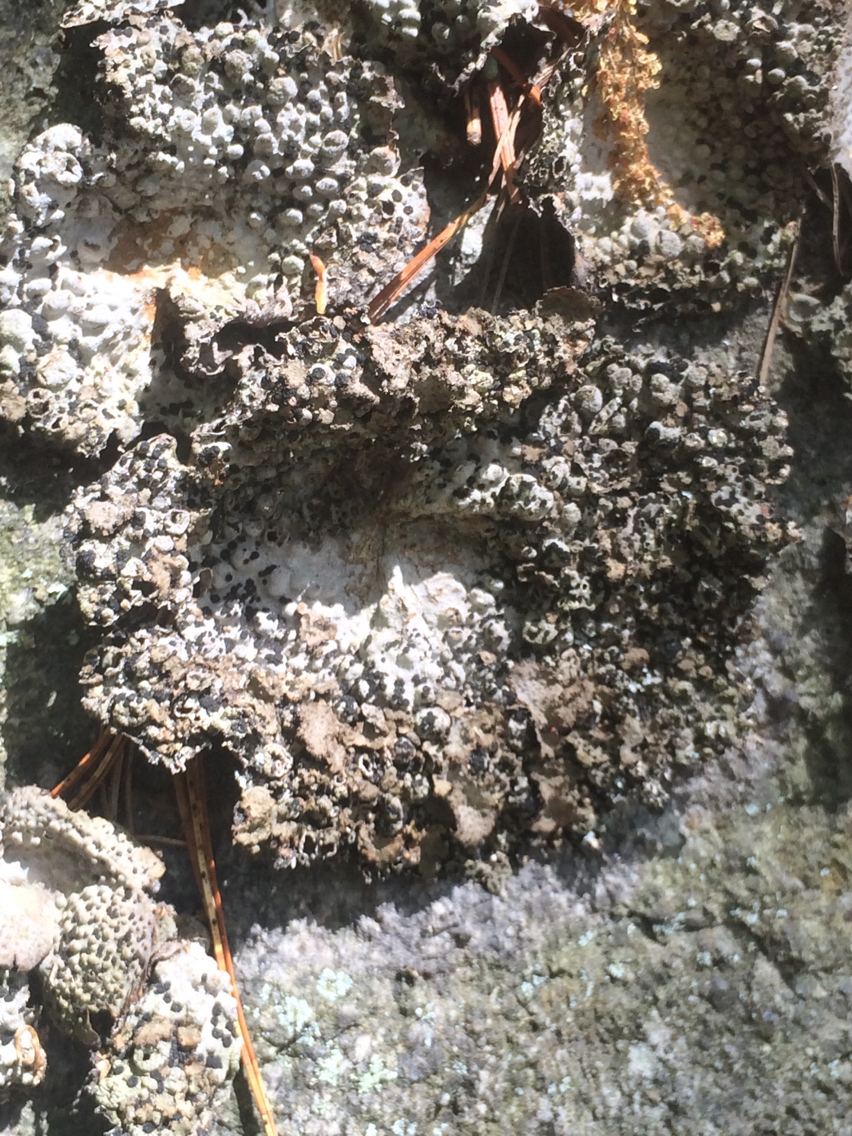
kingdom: Fungi
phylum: Ascomycota
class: Lecanoromycetes
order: Umbilicariales
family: Umbilicariaceae
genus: Lasallia
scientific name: Lasallia papulosa
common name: Common toadskin lichen
